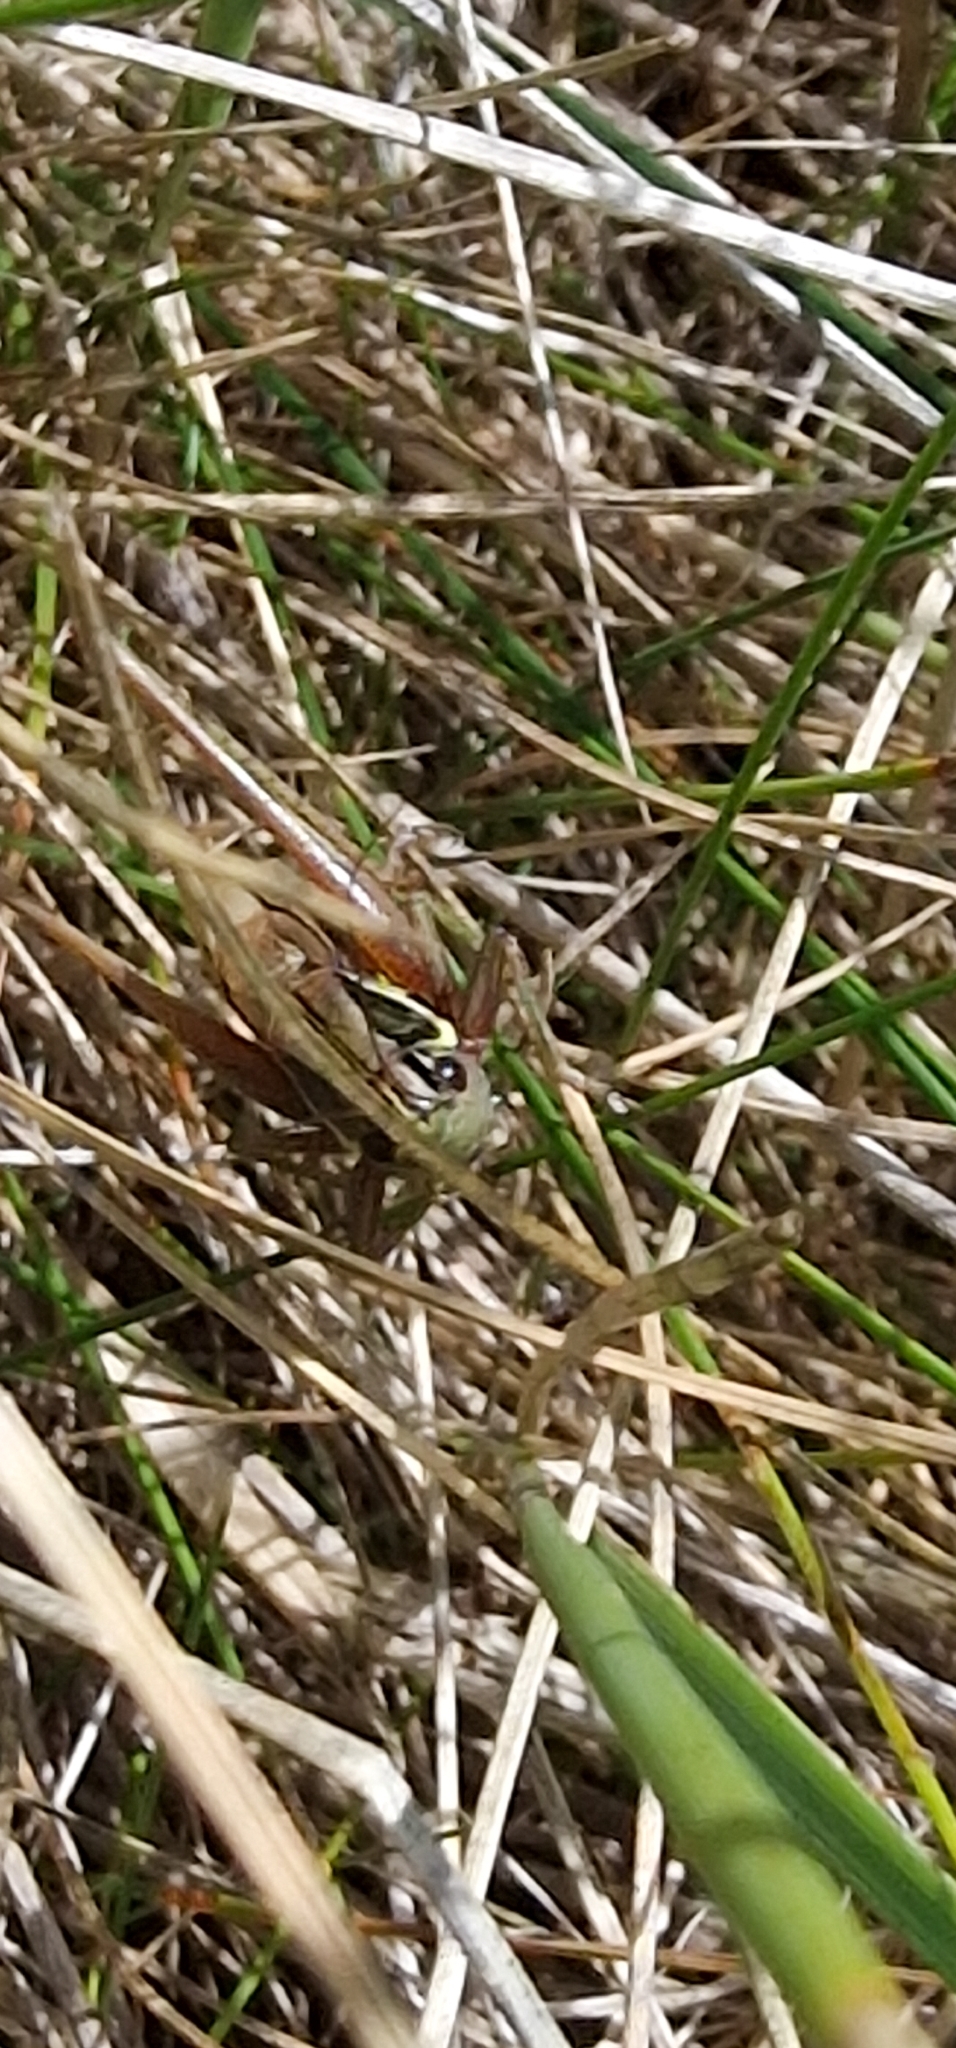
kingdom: Animalia
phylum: Arthropoda
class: Insecta
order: Orthoptera
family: Tettigoniidae
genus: Roeseliana
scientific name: Roeseliana roeselii
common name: Roesel's bush cricket
